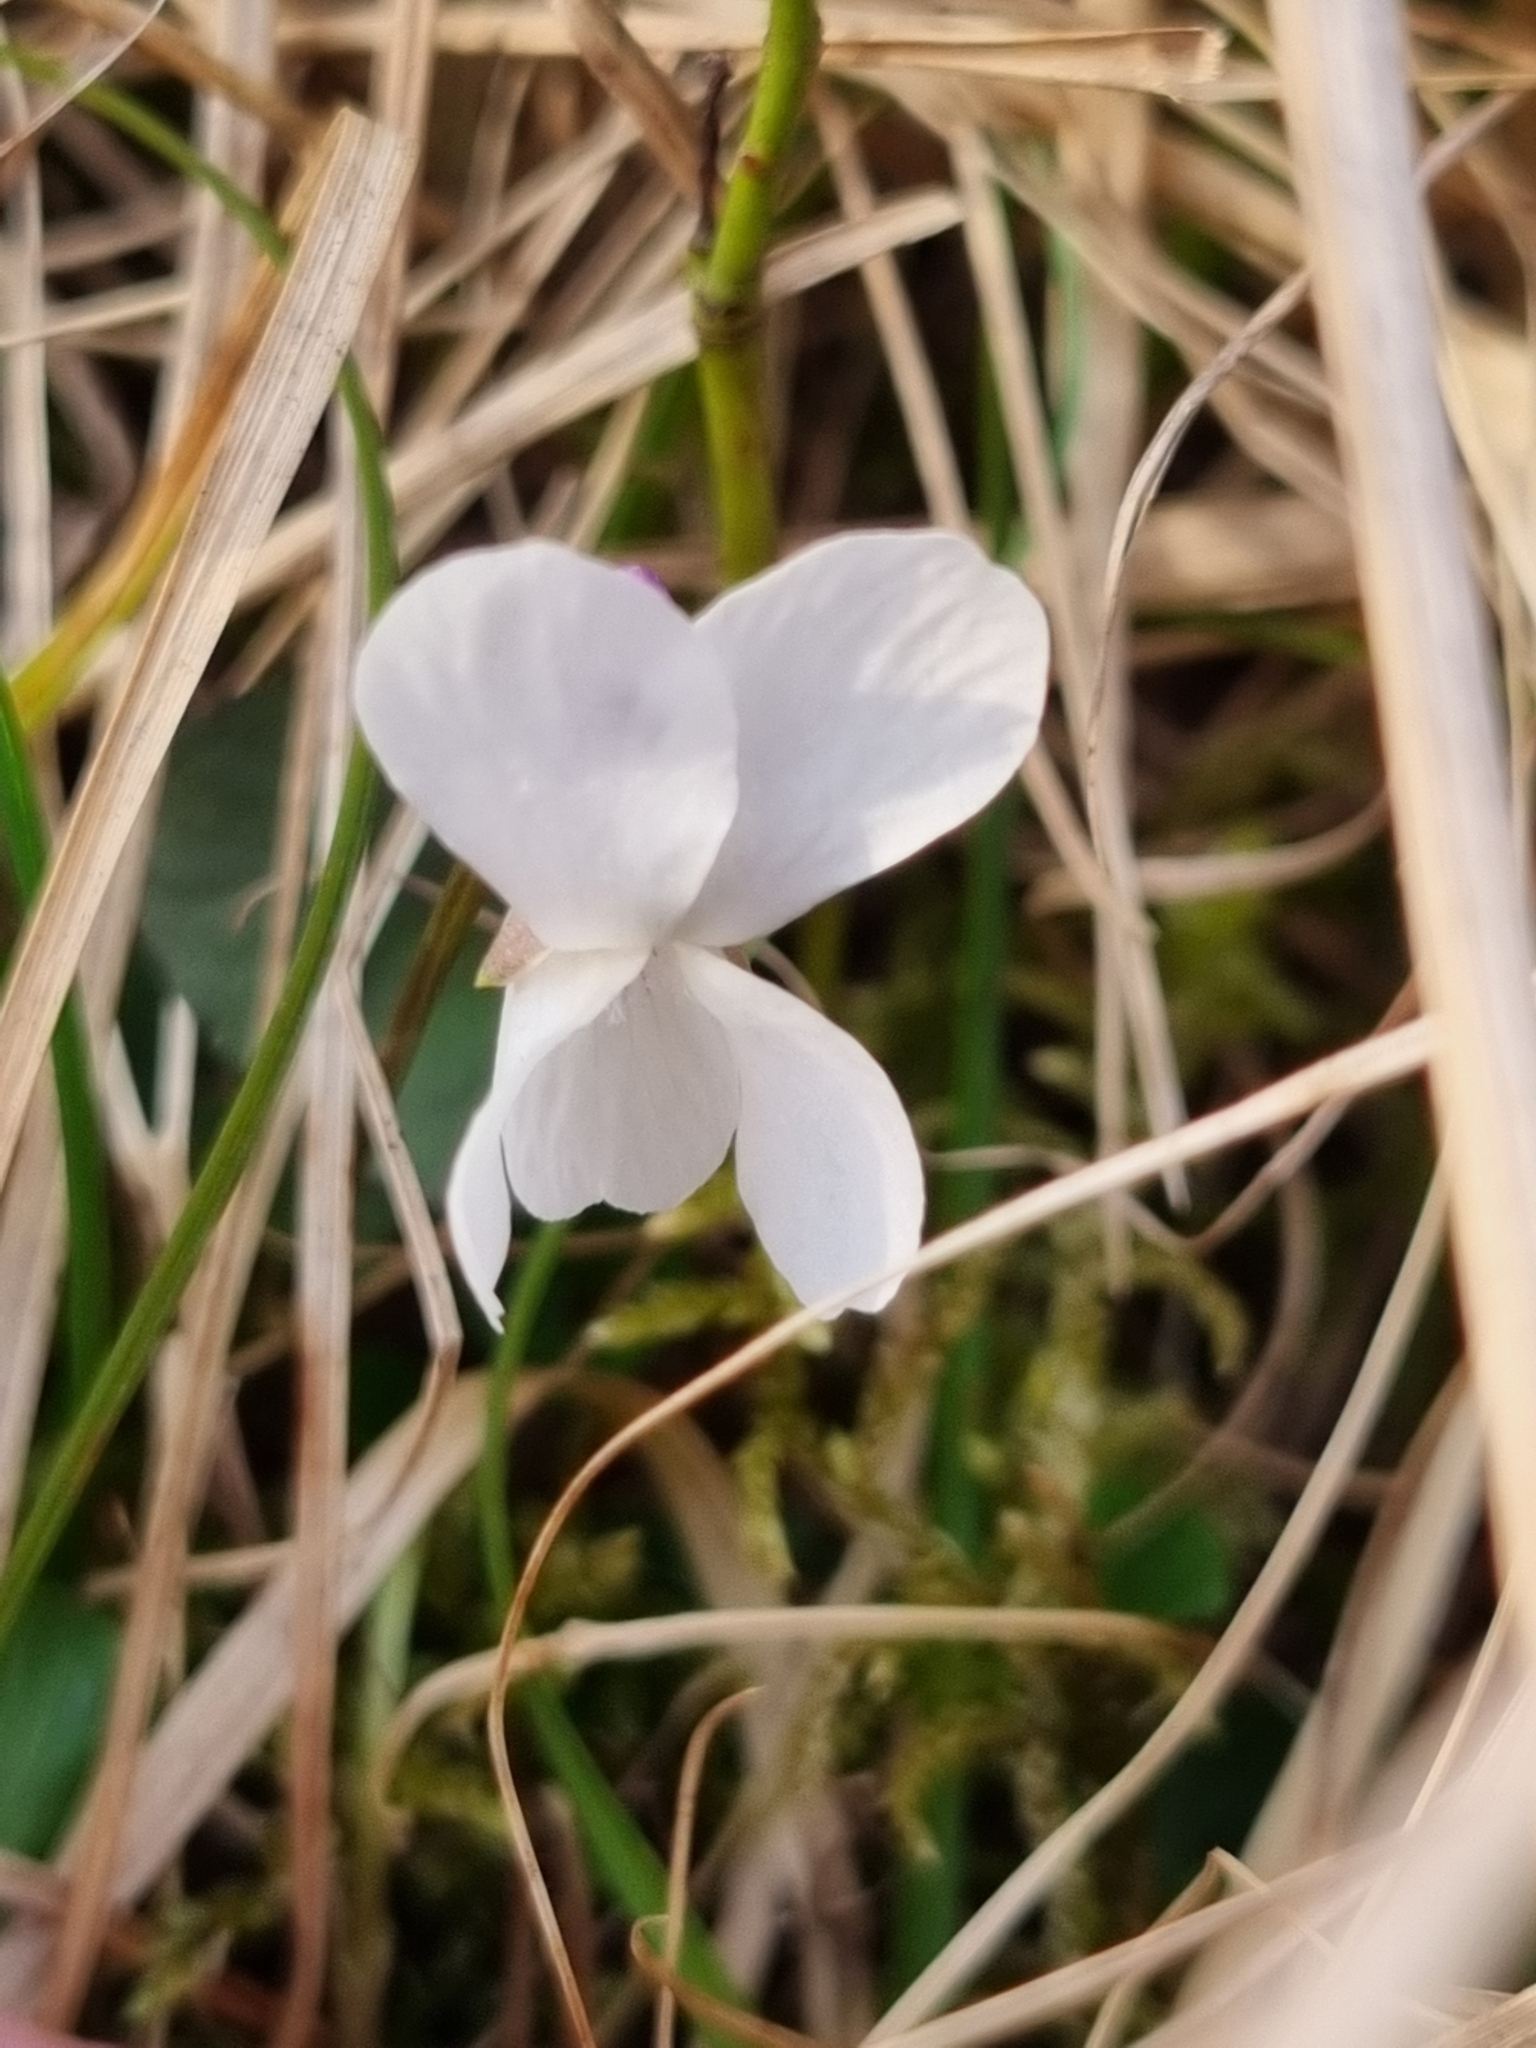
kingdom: Plantae
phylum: Tracheophyta
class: Magnoliopsida
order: Malpighiales
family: Violaceae
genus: Viola
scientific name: Viola alba
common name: White violet
